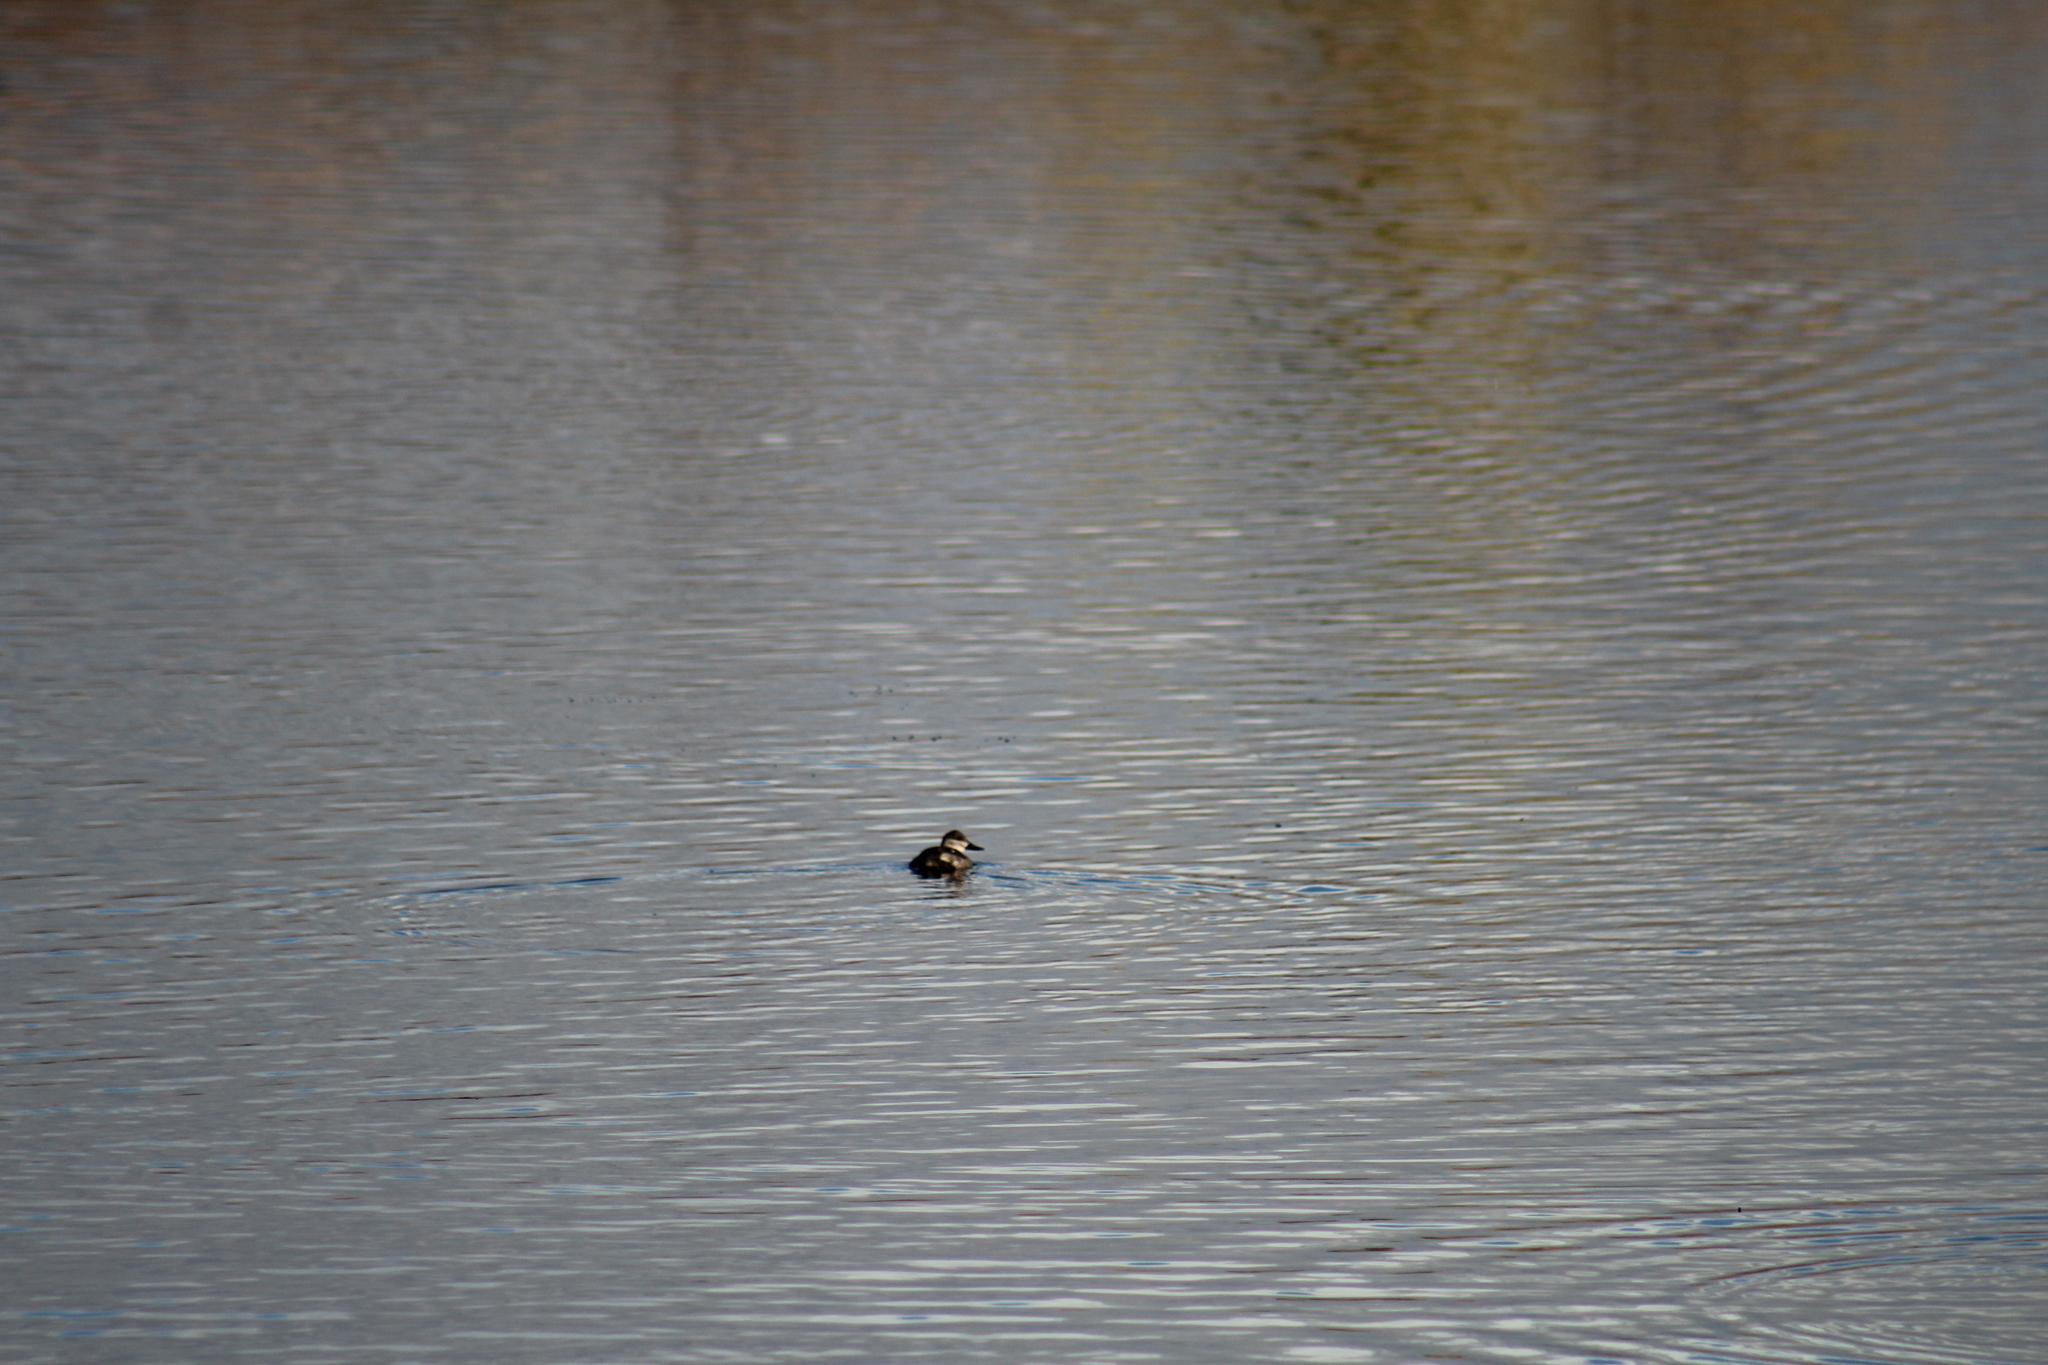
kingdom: Animalia
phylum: Chordata
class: Aves
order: Anseriformes
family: Anatidae
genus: Oxyura
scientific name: Oxyura jamaicensis
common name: Ruddy duck
